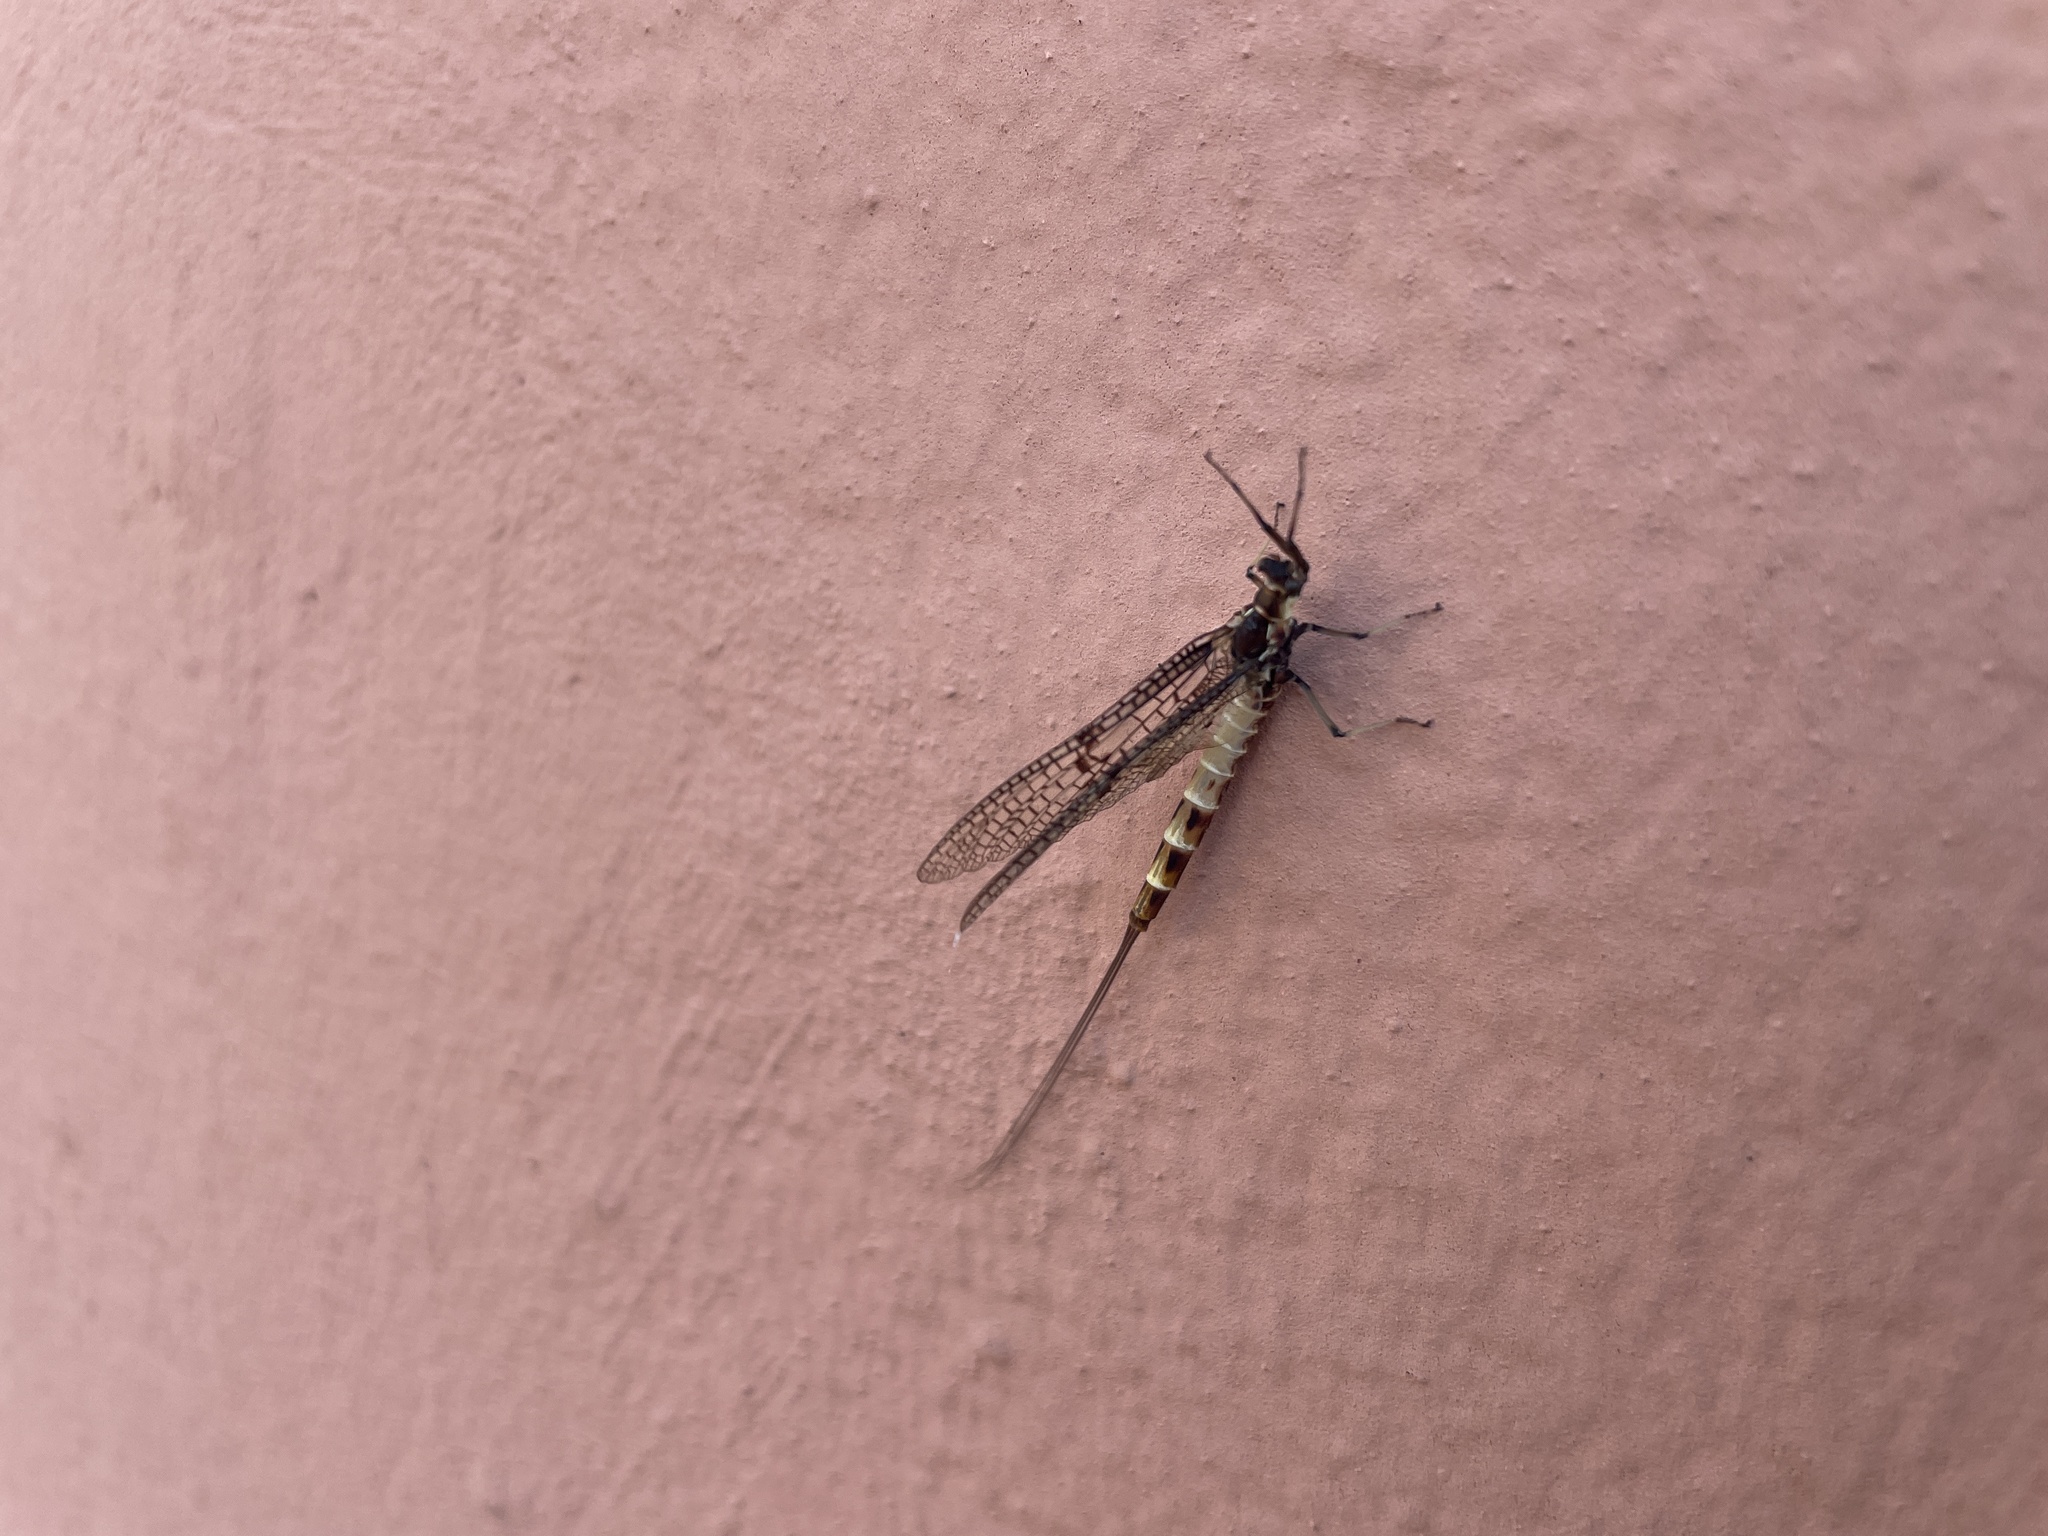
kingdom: Animalia
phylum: Arthropoda
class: Insecta
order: Ephemeroptera
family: Ephemeridae
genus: Ephemera
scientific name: Ephemera danica
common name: Green dun
